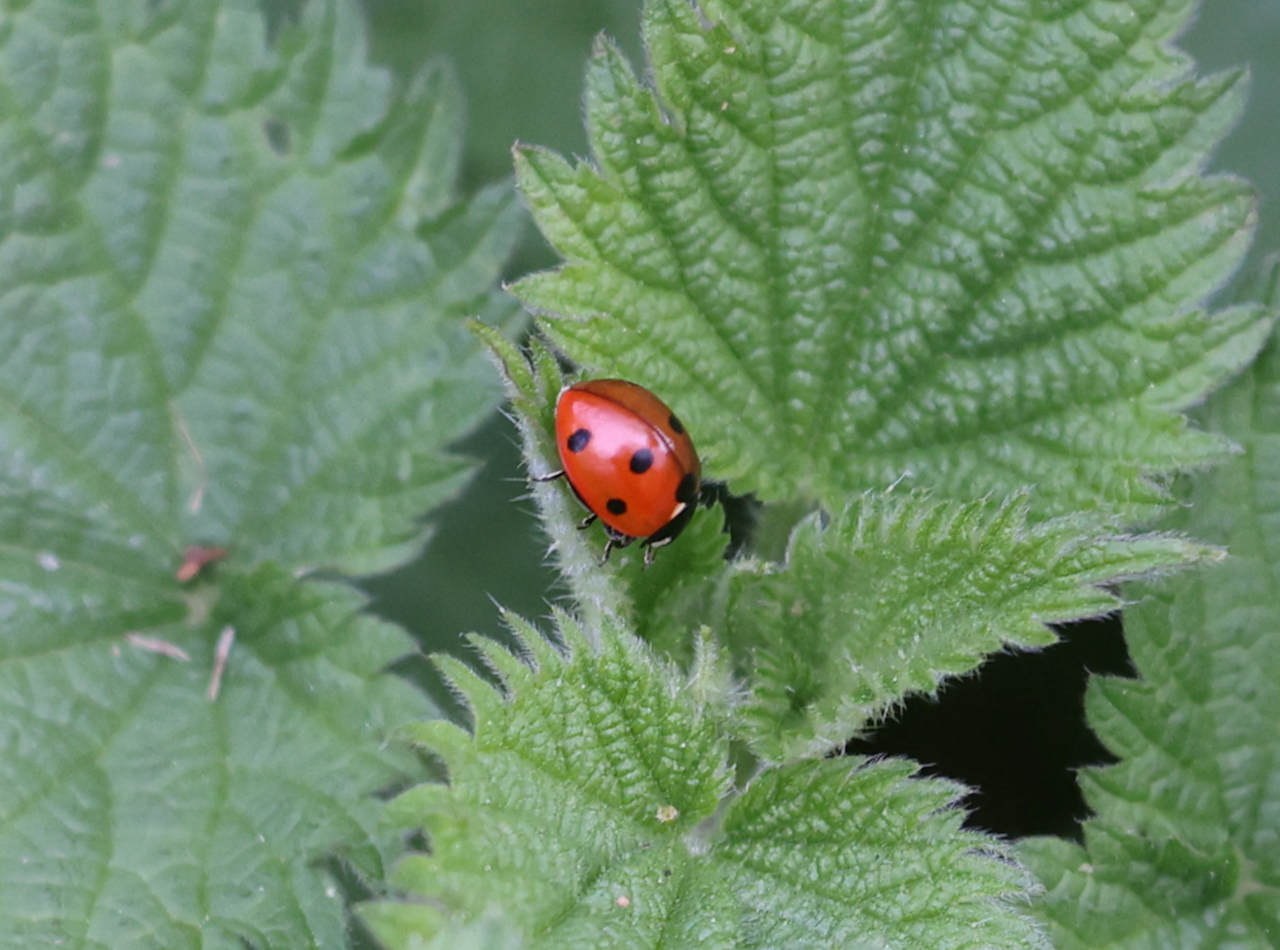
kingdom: Animalia
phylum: Arthropoda
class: Insecta
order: Coleoptera
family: Coccinellidae
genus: Coccinella
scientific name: Coccinella septempunctata
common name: Sevenspotted lady beetle
